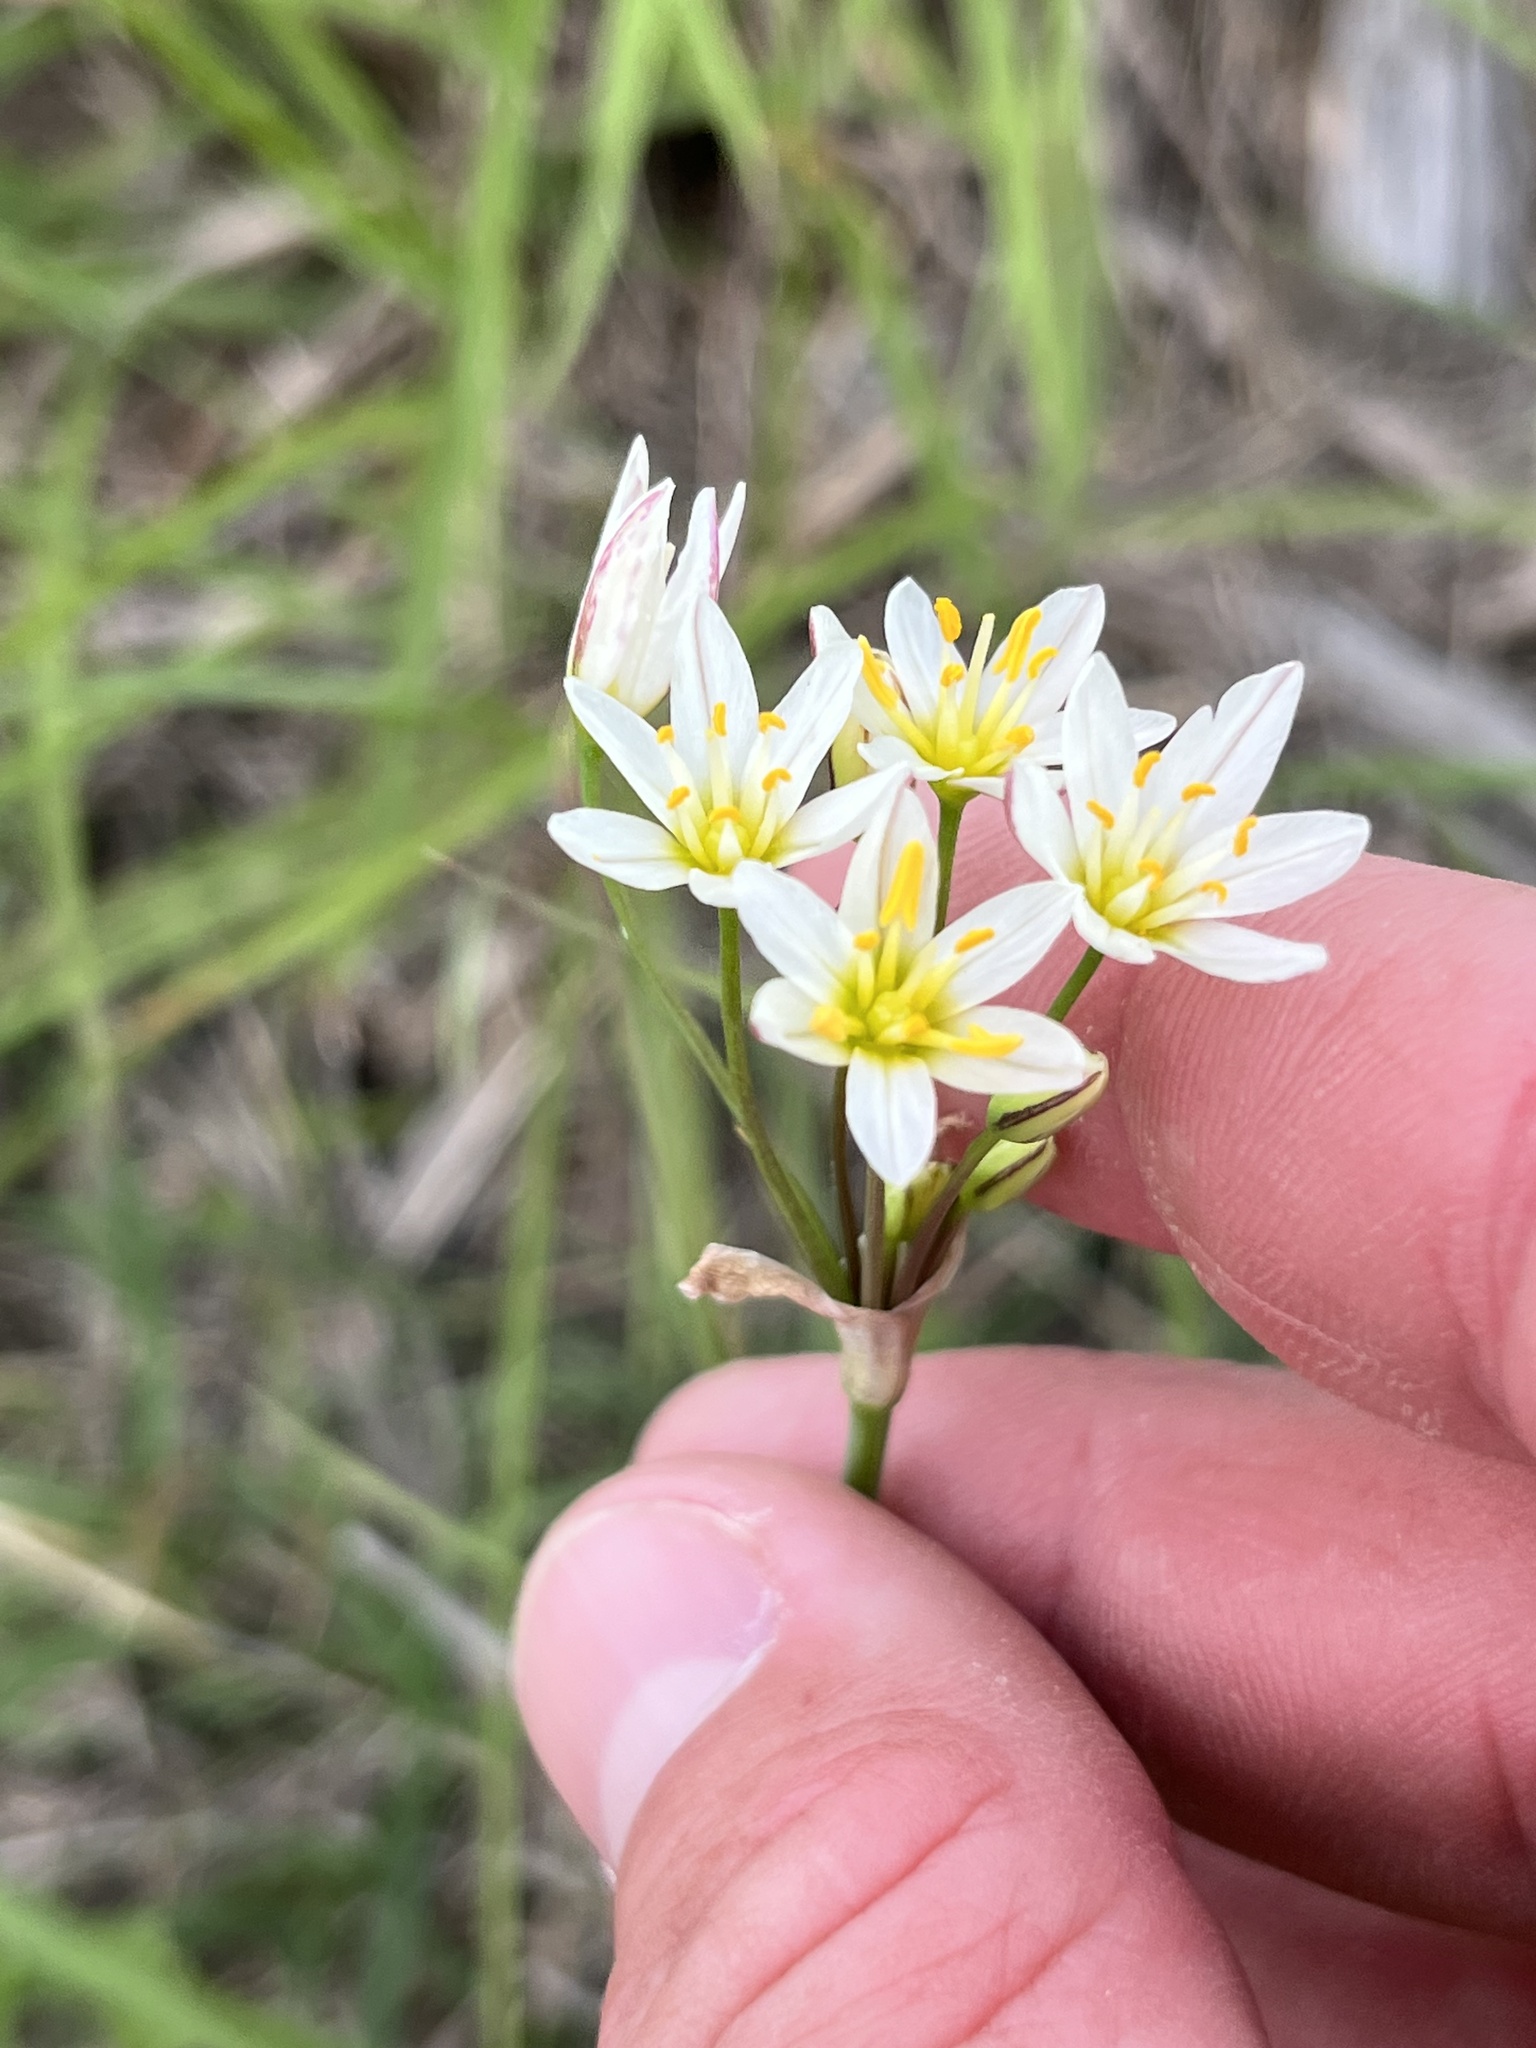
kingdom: Plantae
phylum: Tracheophyta
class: Liliopsida
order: Asparagales
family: Amaryllidaceae
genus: Nothoscordum
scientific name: Nothoscordum bivalve
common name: Crow-poison
